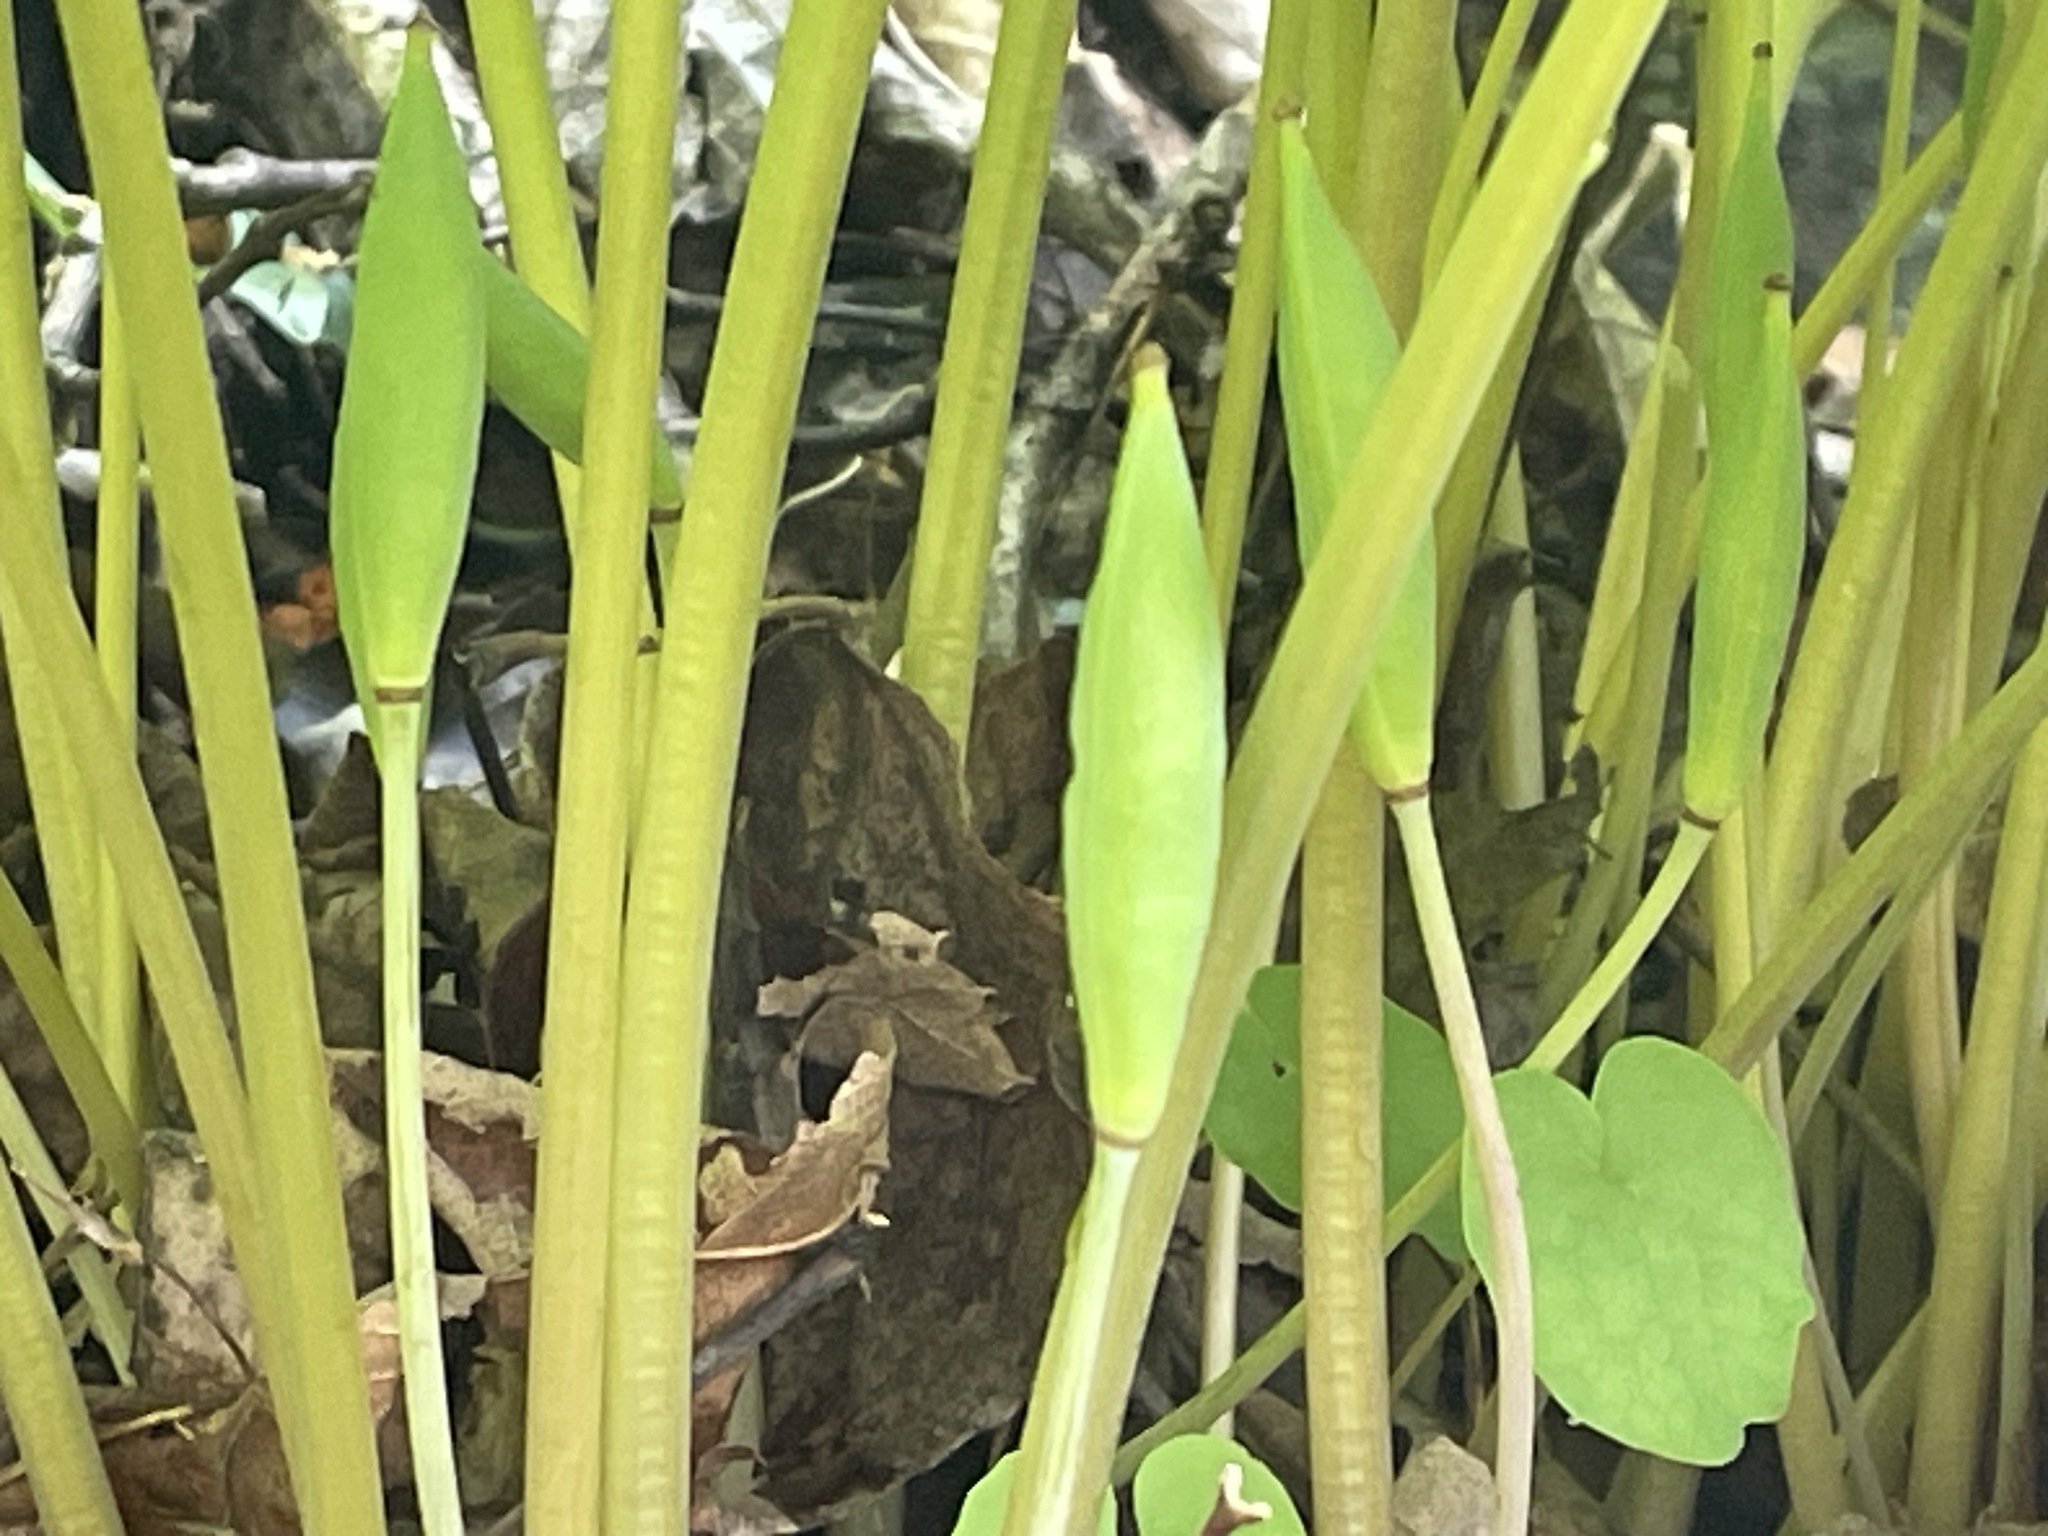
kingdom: Plantae
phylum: Tracheophyta
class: Magnoliopsida
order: Ranunculales
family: Papaveraceae
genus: Sanguinaria
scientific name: Sanguinaria canadensis
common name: Bloodroot
